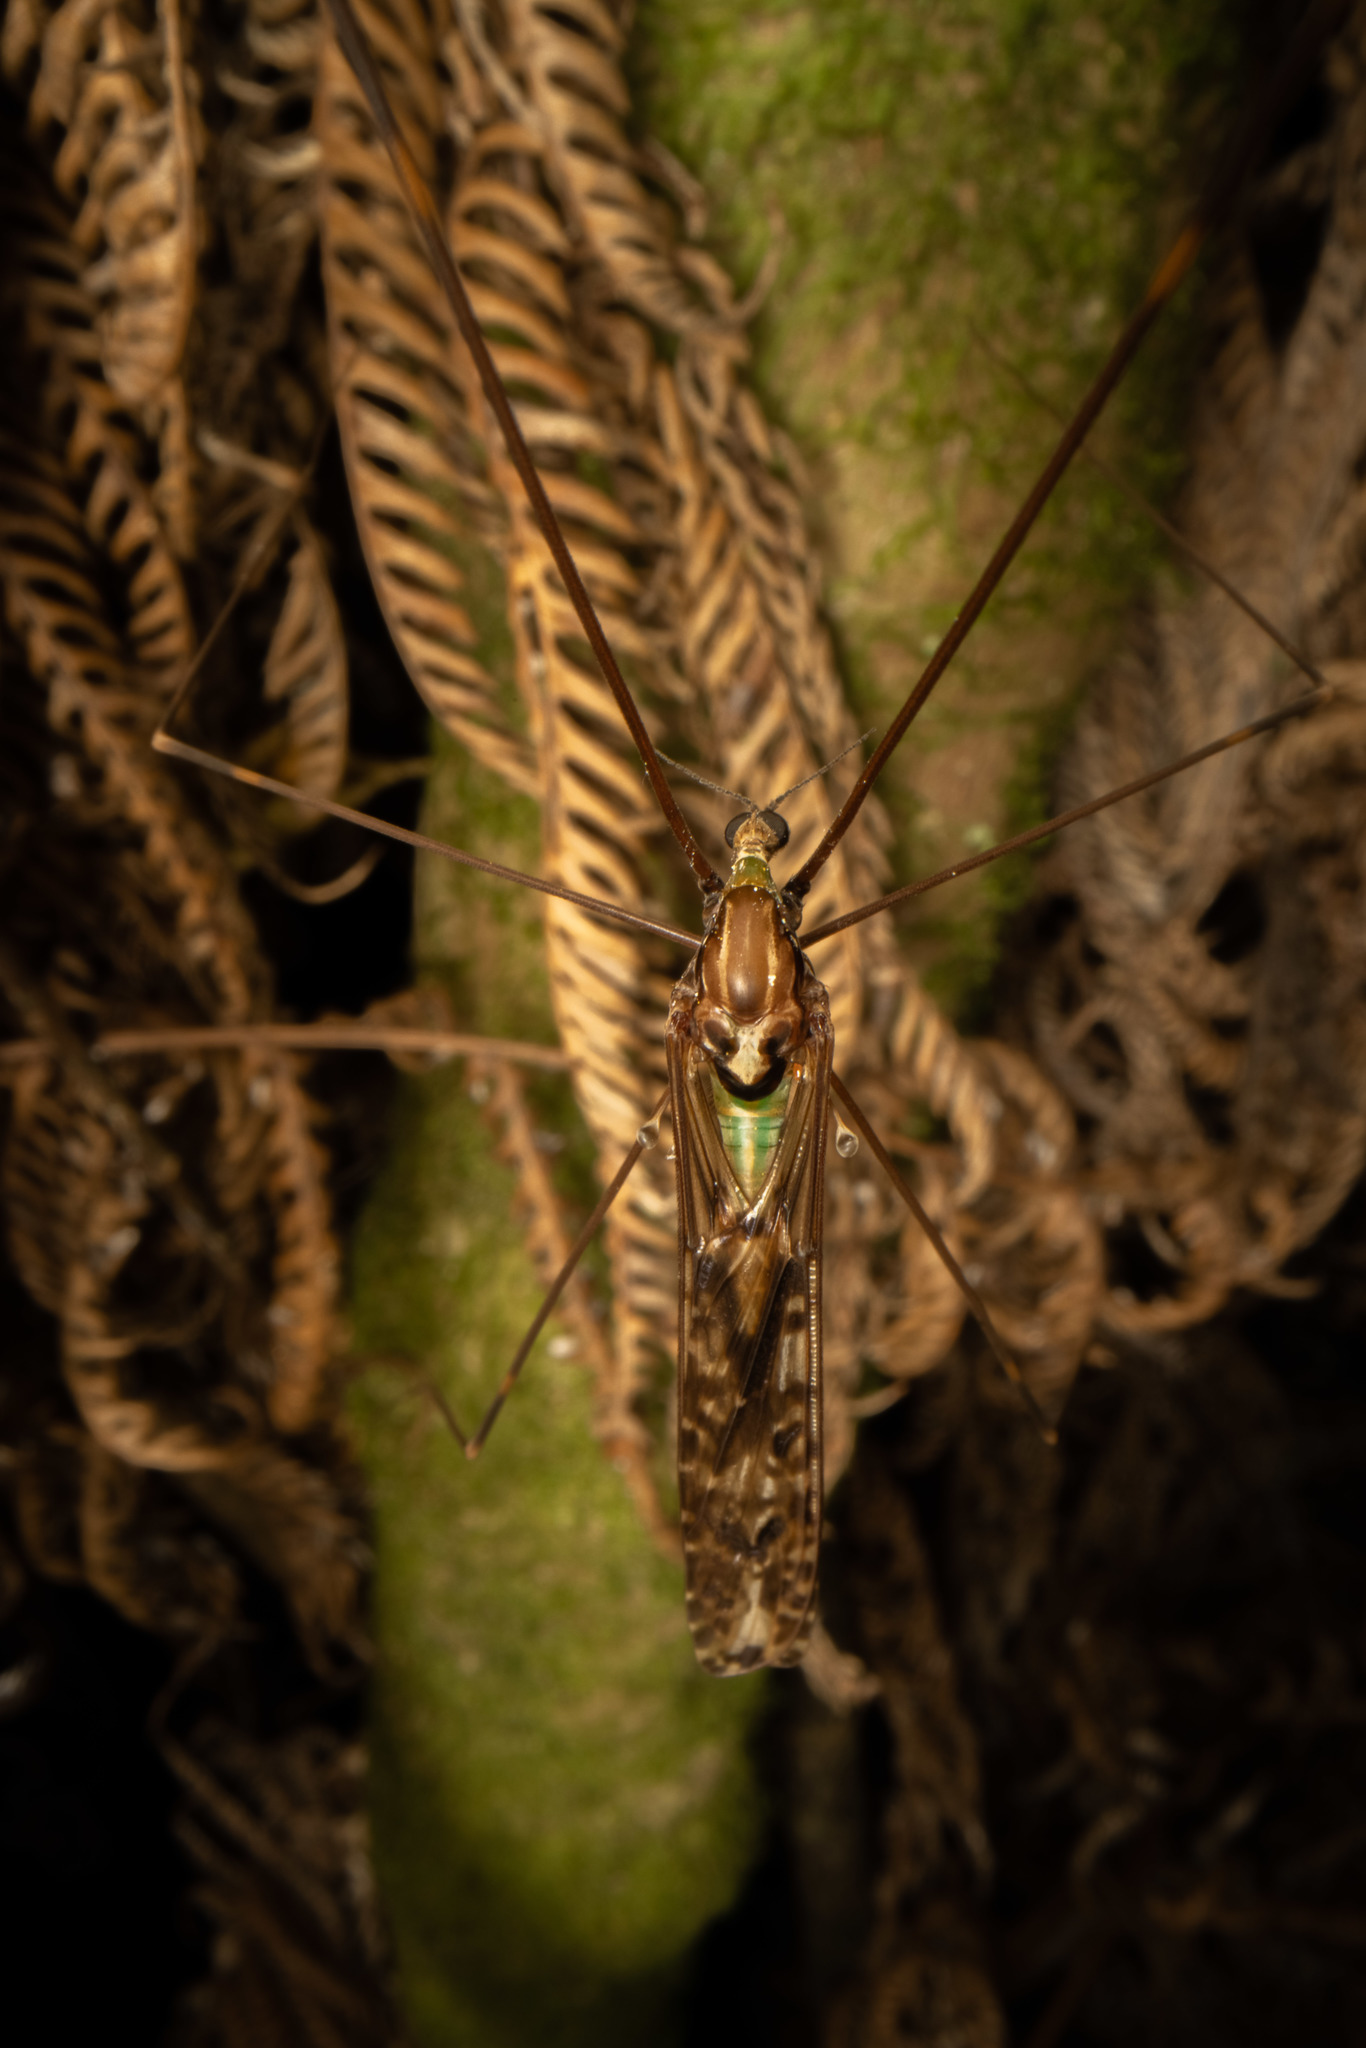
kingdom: Animalia
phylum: Arthropoda
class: Insecta
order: Diptera
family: Limoniidae
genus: Discobola
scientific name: Discobola dohrni
